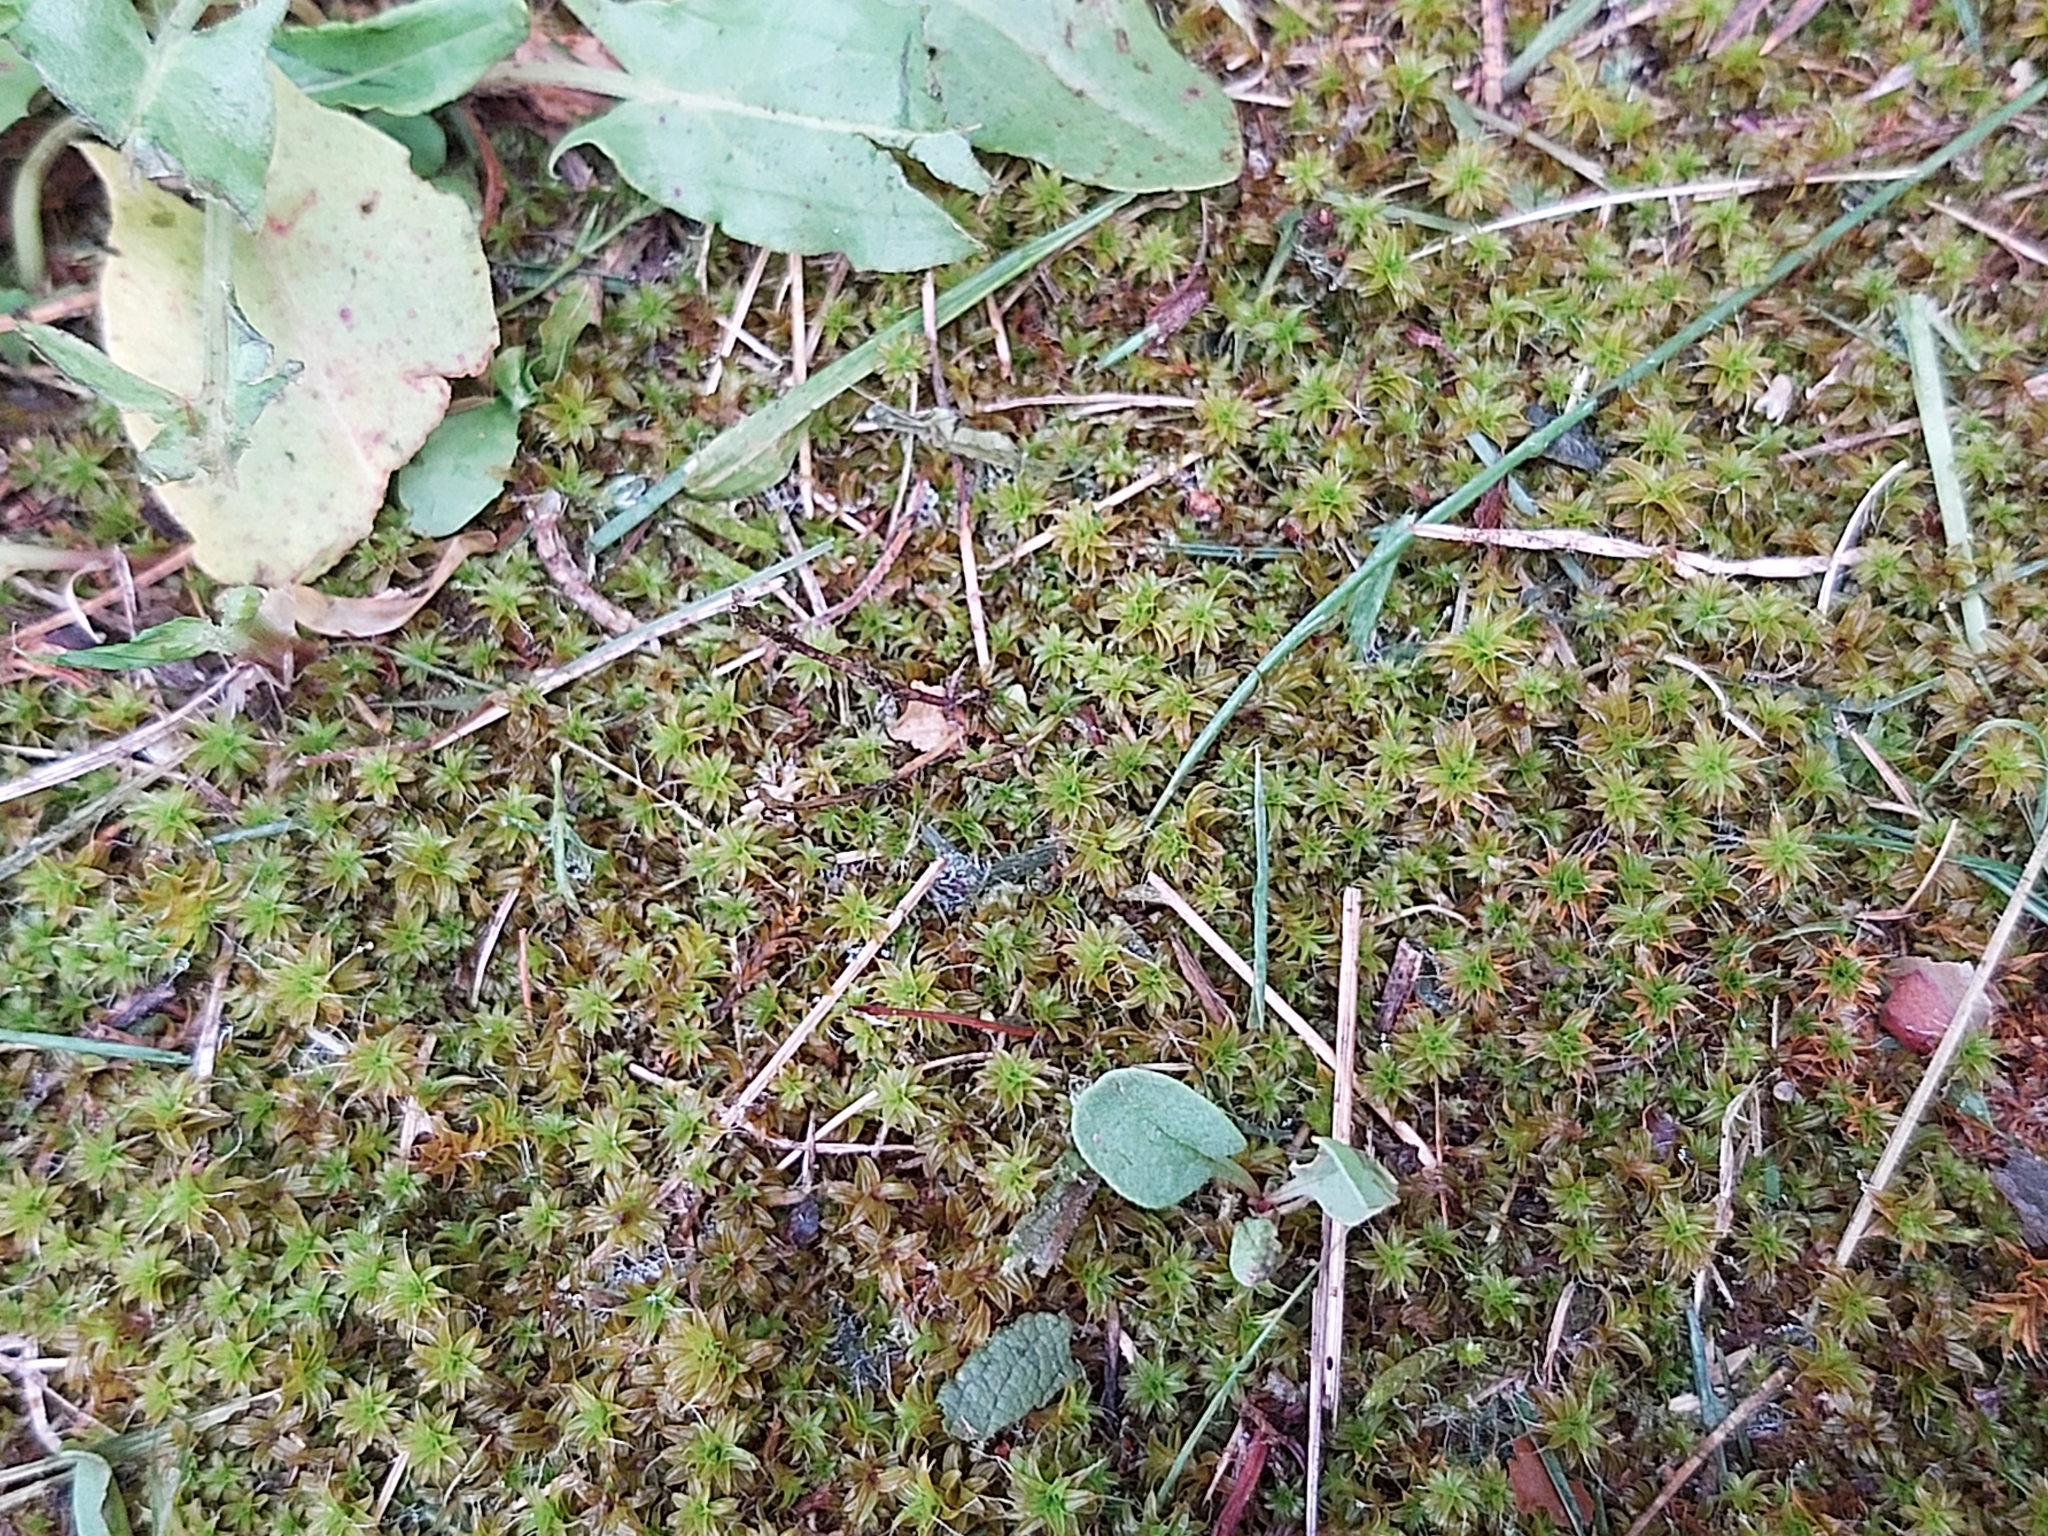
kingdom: Plantae
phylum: Bryophyta
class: Bryopsida
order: Pottiales
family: Pottiaceae
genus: Syntrichia
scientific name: Syntrichia ruralis
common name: Sidewalk screw moss
